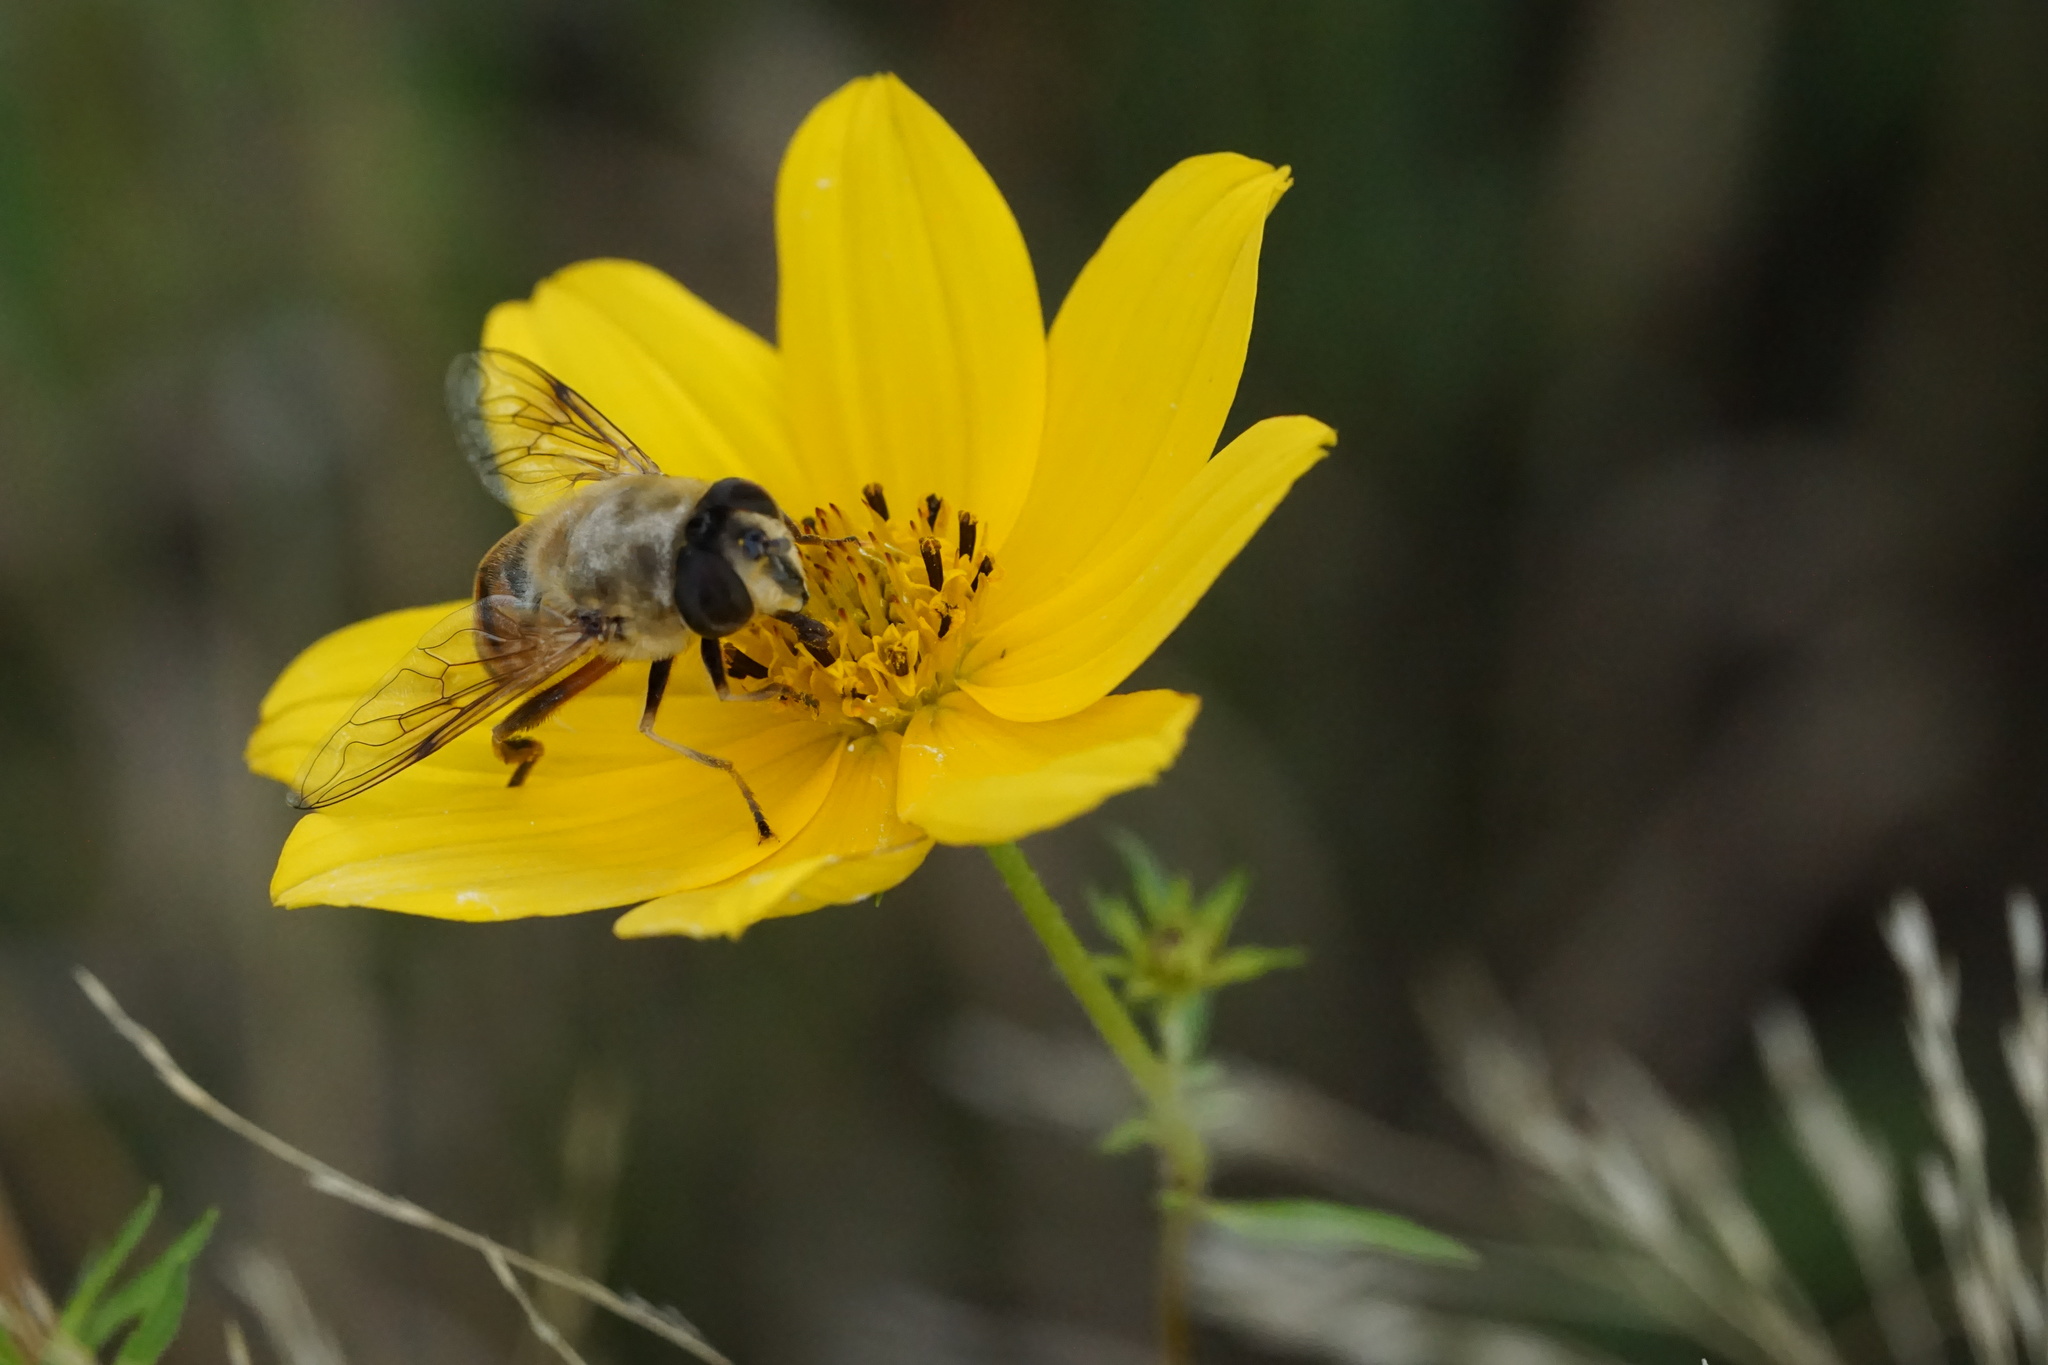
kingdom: Animalia
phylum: Arthropoda
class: Insecta
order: Diptera
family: Syrphidae
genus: Eristalis
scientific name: Eristalis tenax
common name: Drone fly
